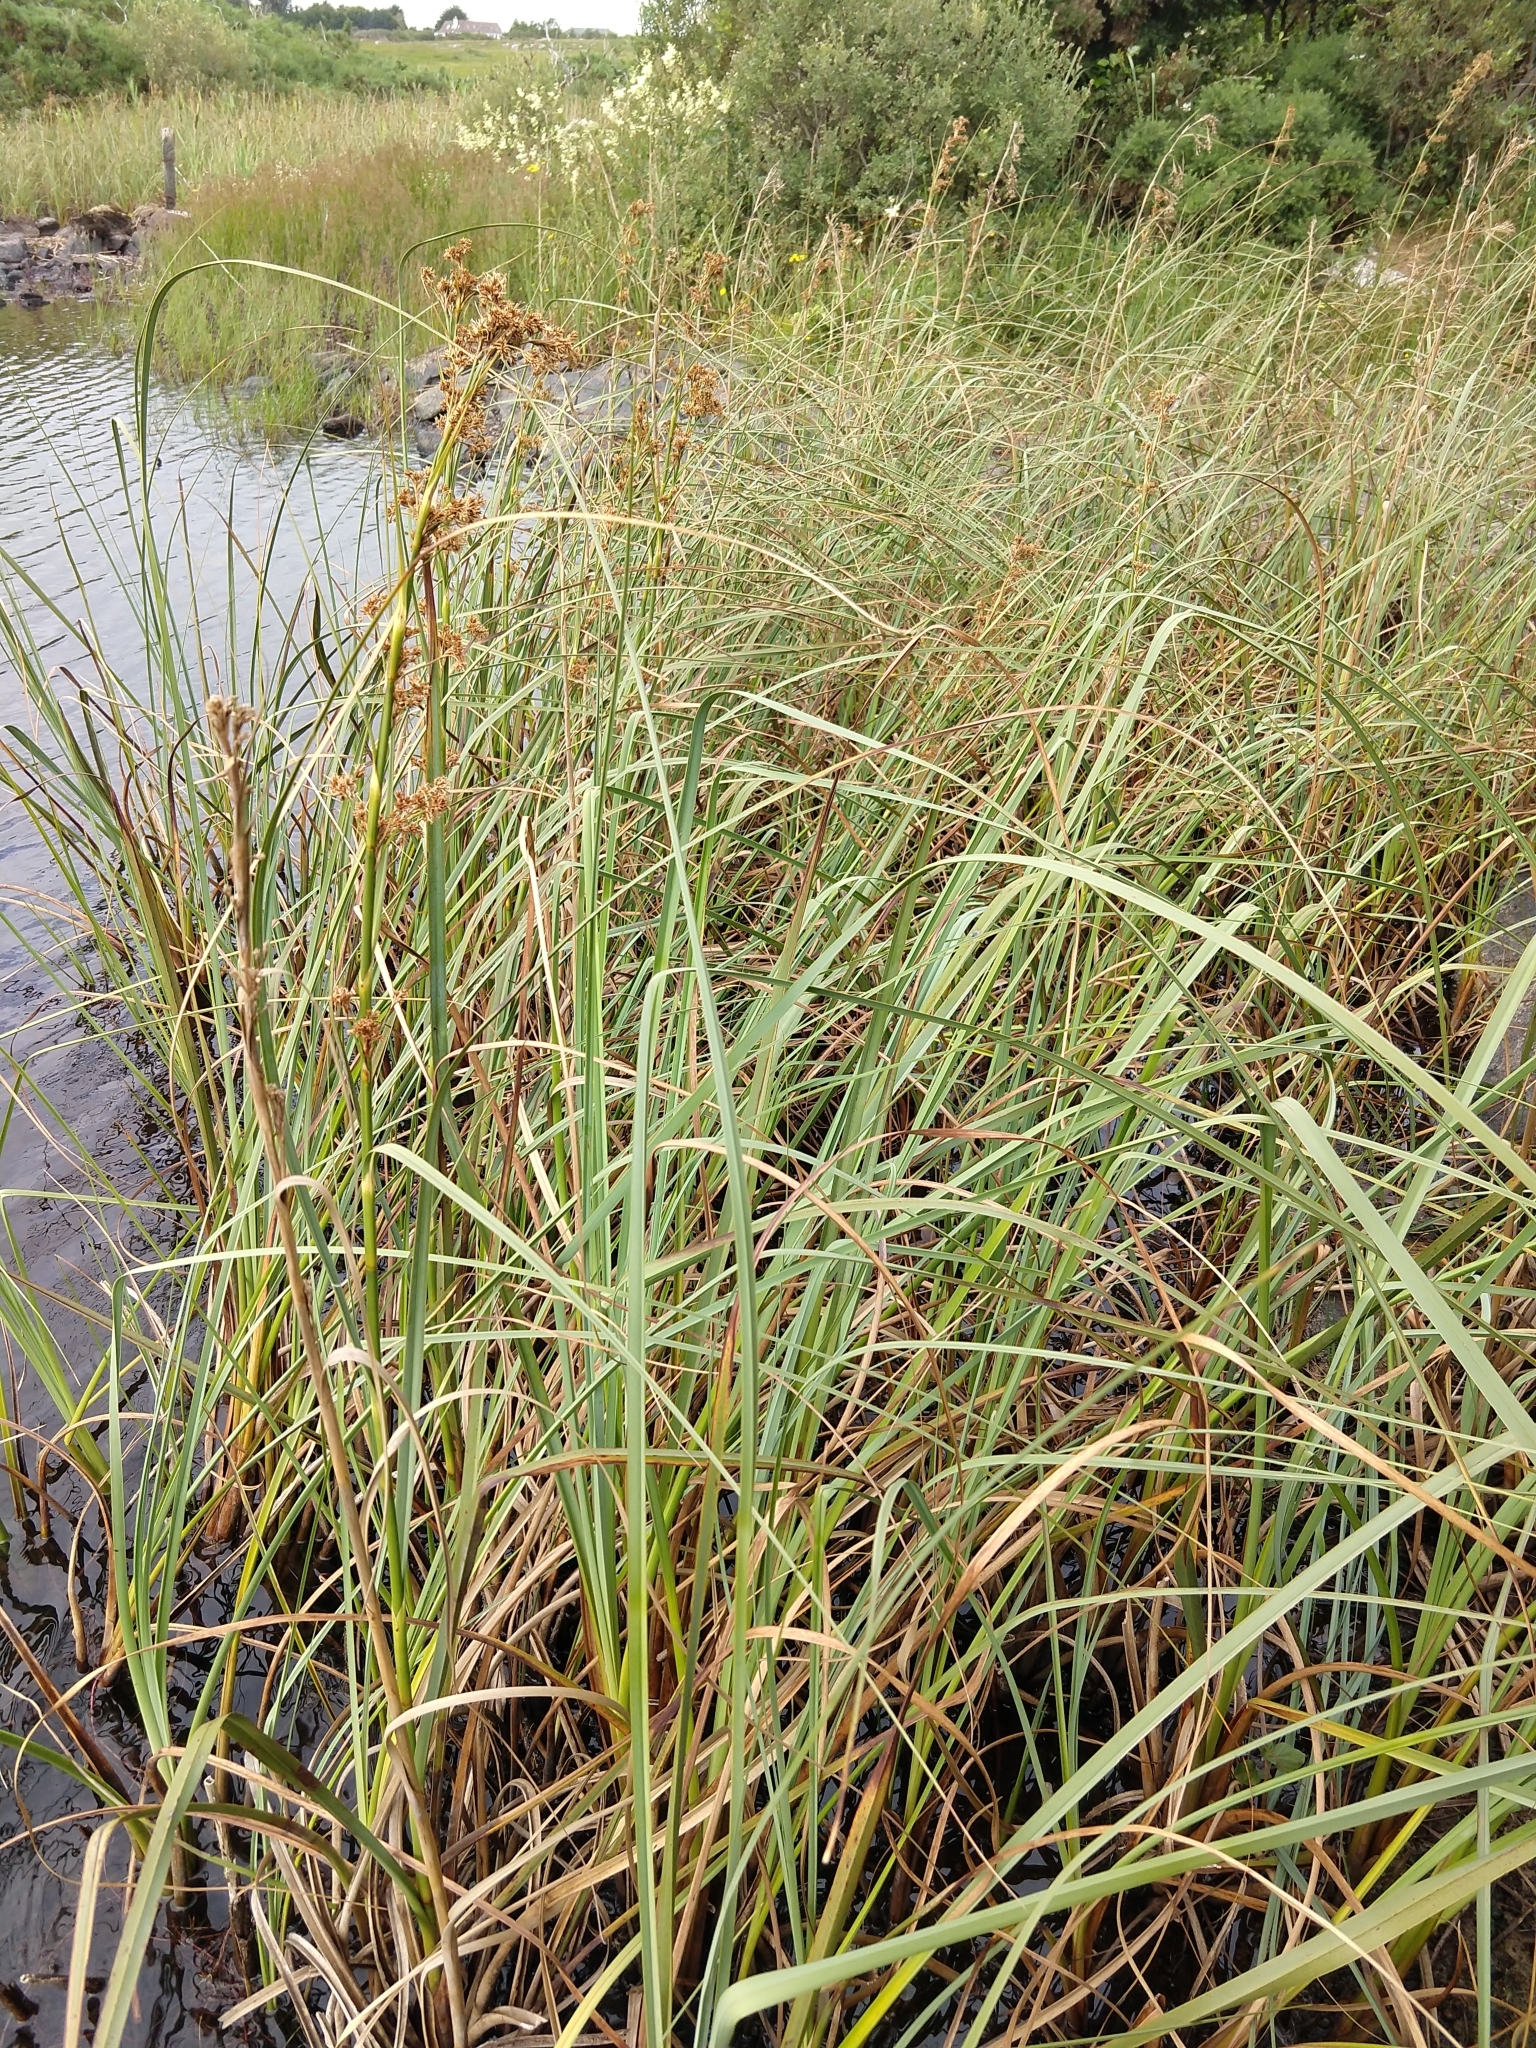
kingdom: Plantae
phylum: Tracheophyta
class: Liliopsida
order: Poales
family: Cyperaceae
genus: Cladium
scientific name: Cladium mariscus
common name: Great fen-sedge
